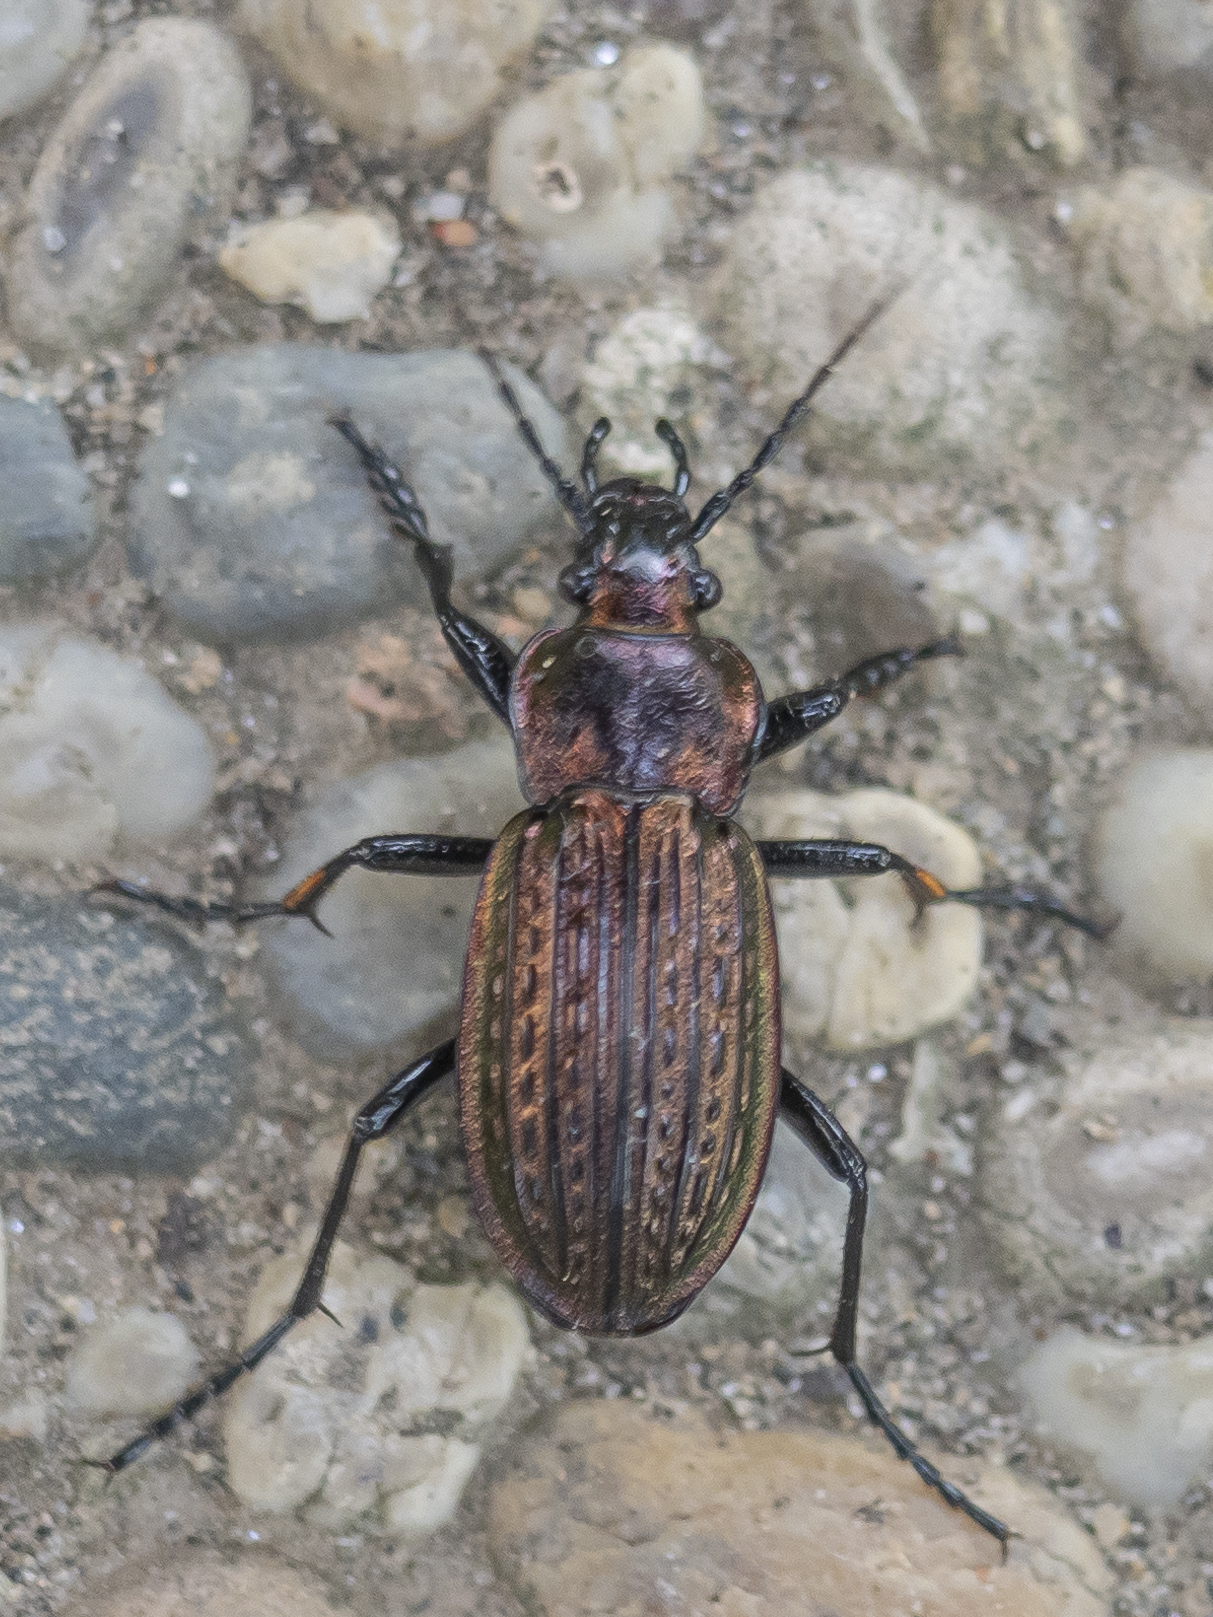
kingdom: Animalia
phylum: Arthropoda
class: Insecta
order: Coleoptera
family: Carabidae
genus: Carabus
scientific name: Carabus ulrichii
